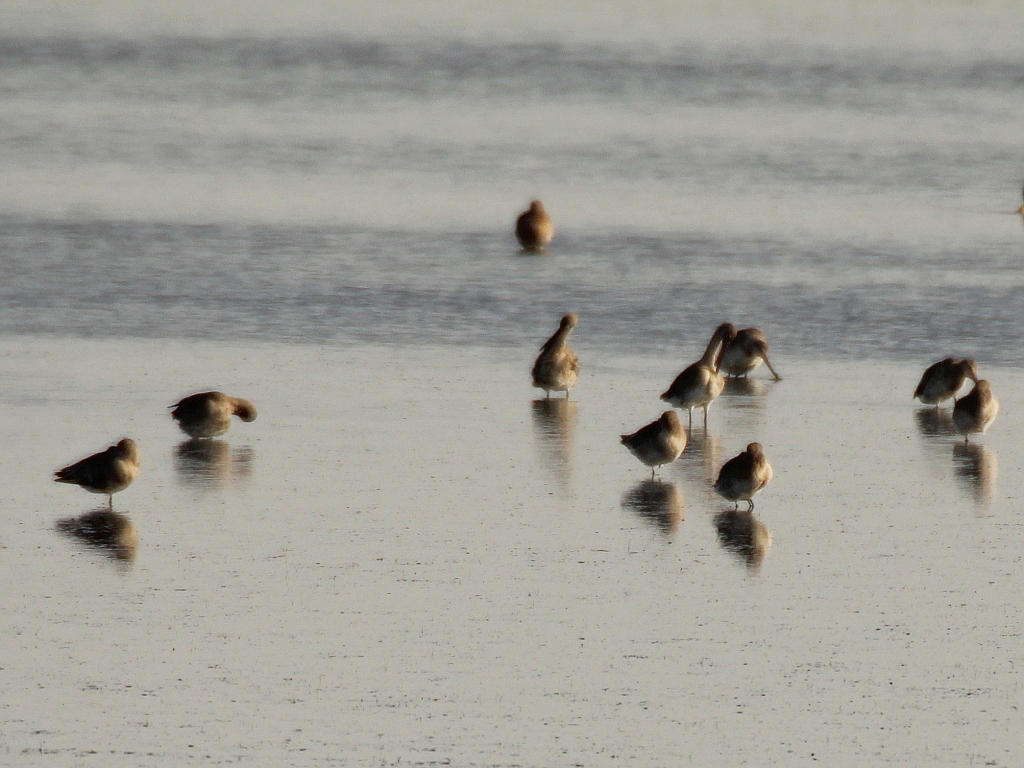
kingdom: Animalia
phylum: Chordata
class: Aves
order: Charadriiformes
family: Scolopacidae
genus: Limosa
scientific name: Limosa limosa
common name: Black-tailed godwit
